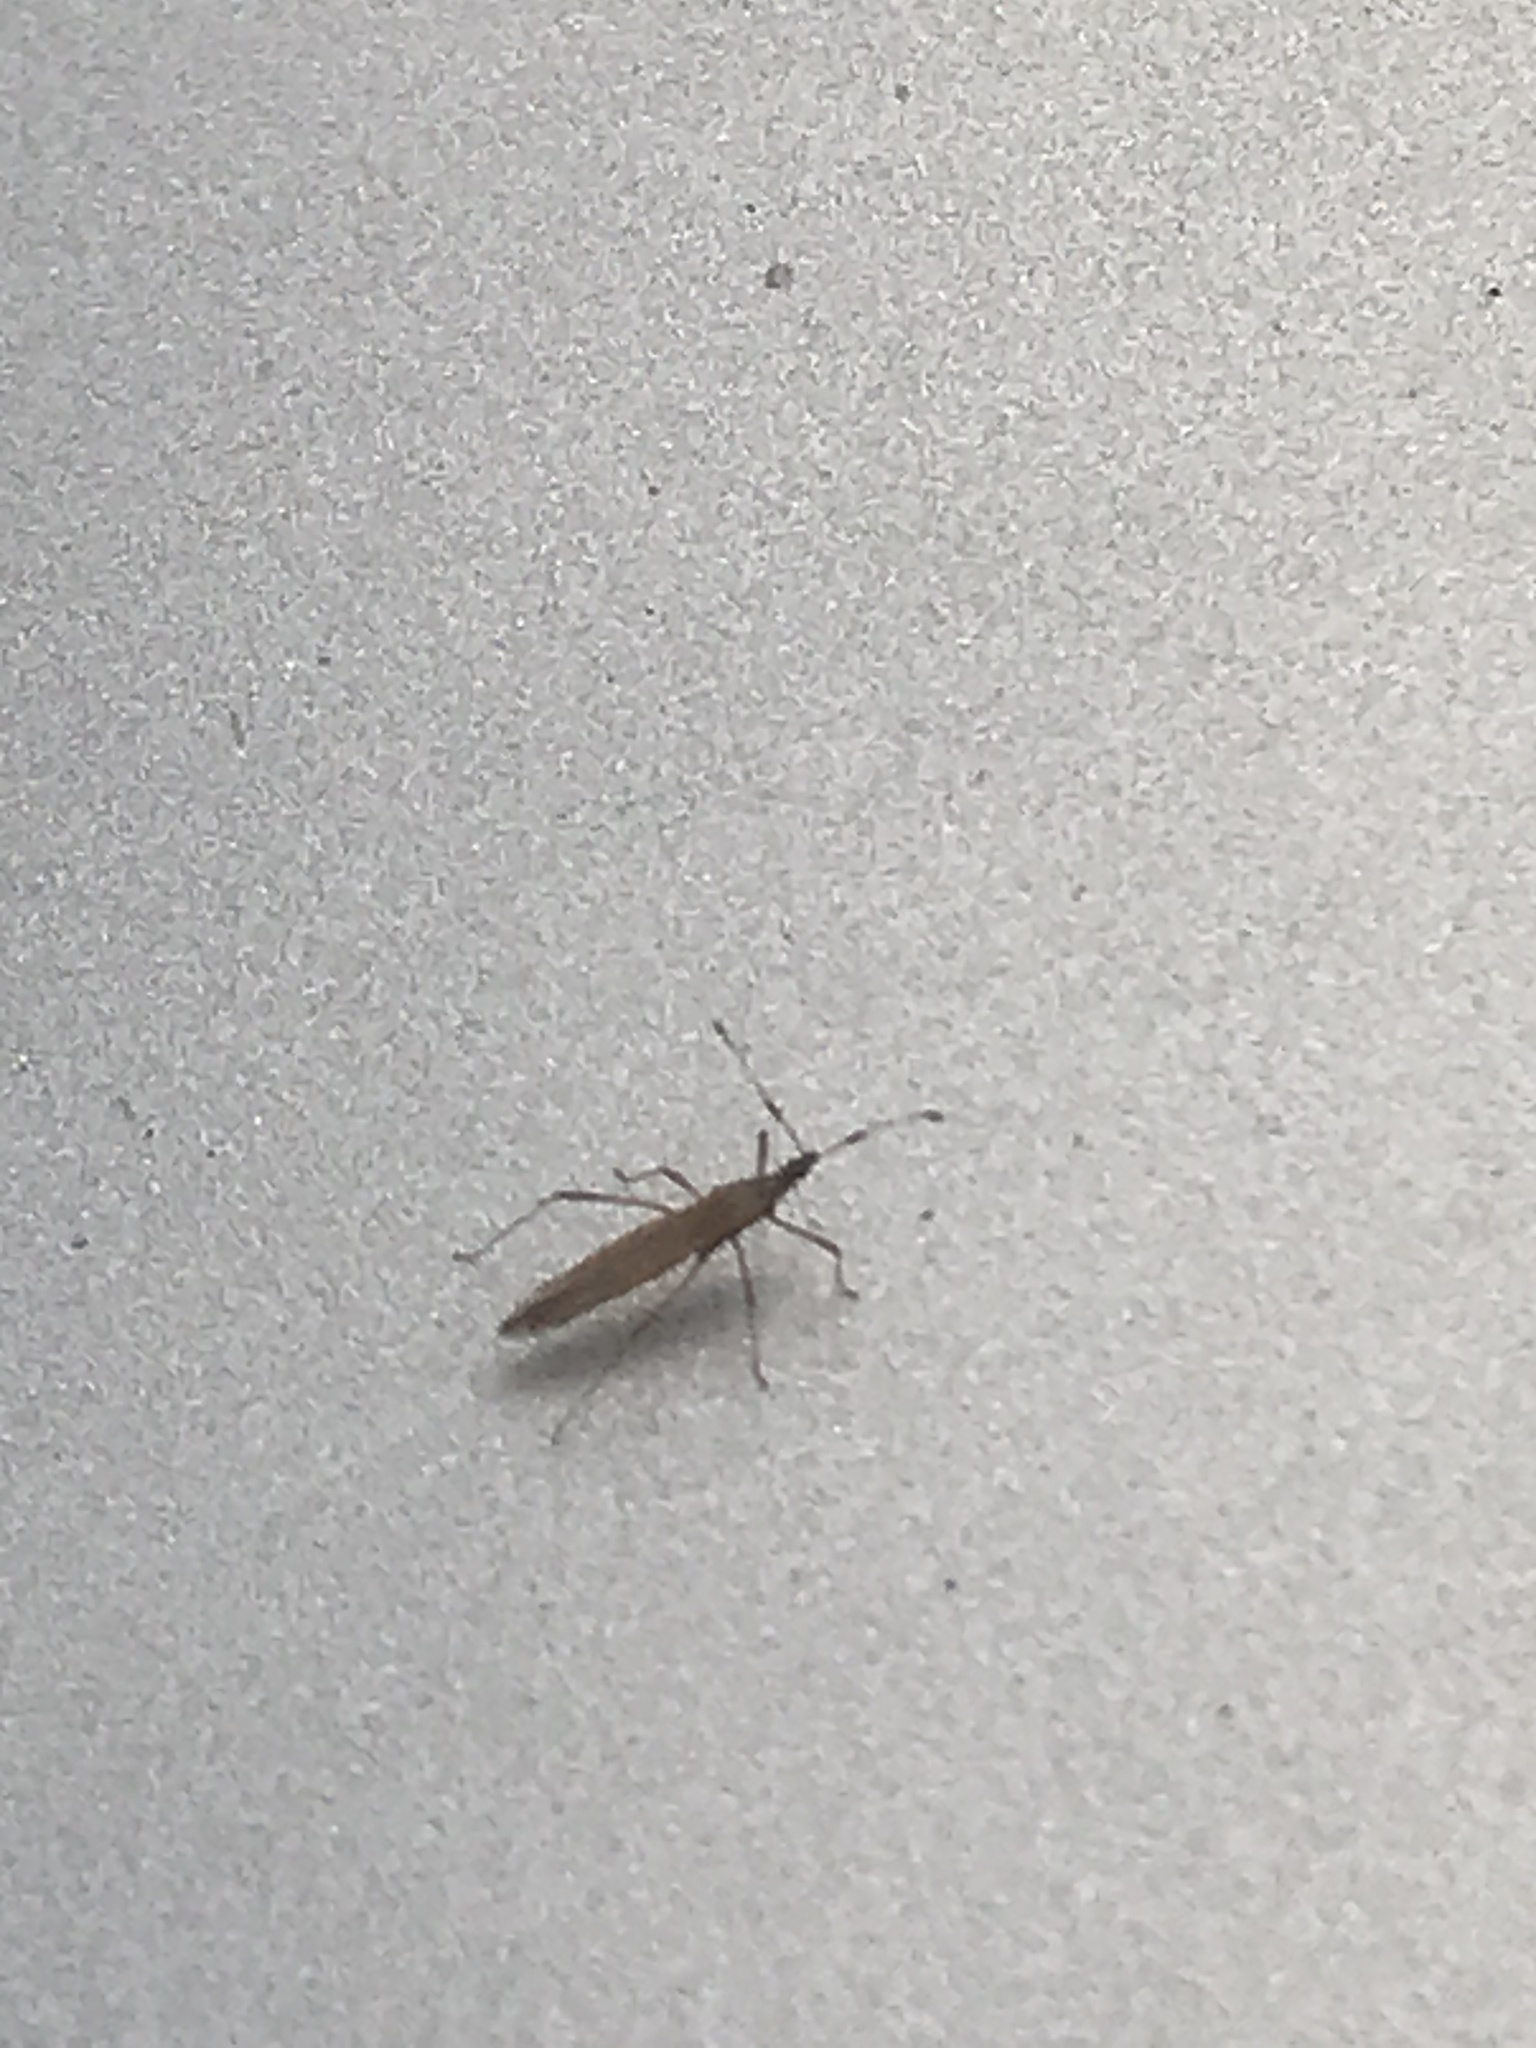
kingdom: Animalia
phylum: Arthropoda
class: Insecta
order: Hemiptera
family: Berytidae
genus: Berytinus
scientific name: Berytinus minor
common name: Stilt bug
